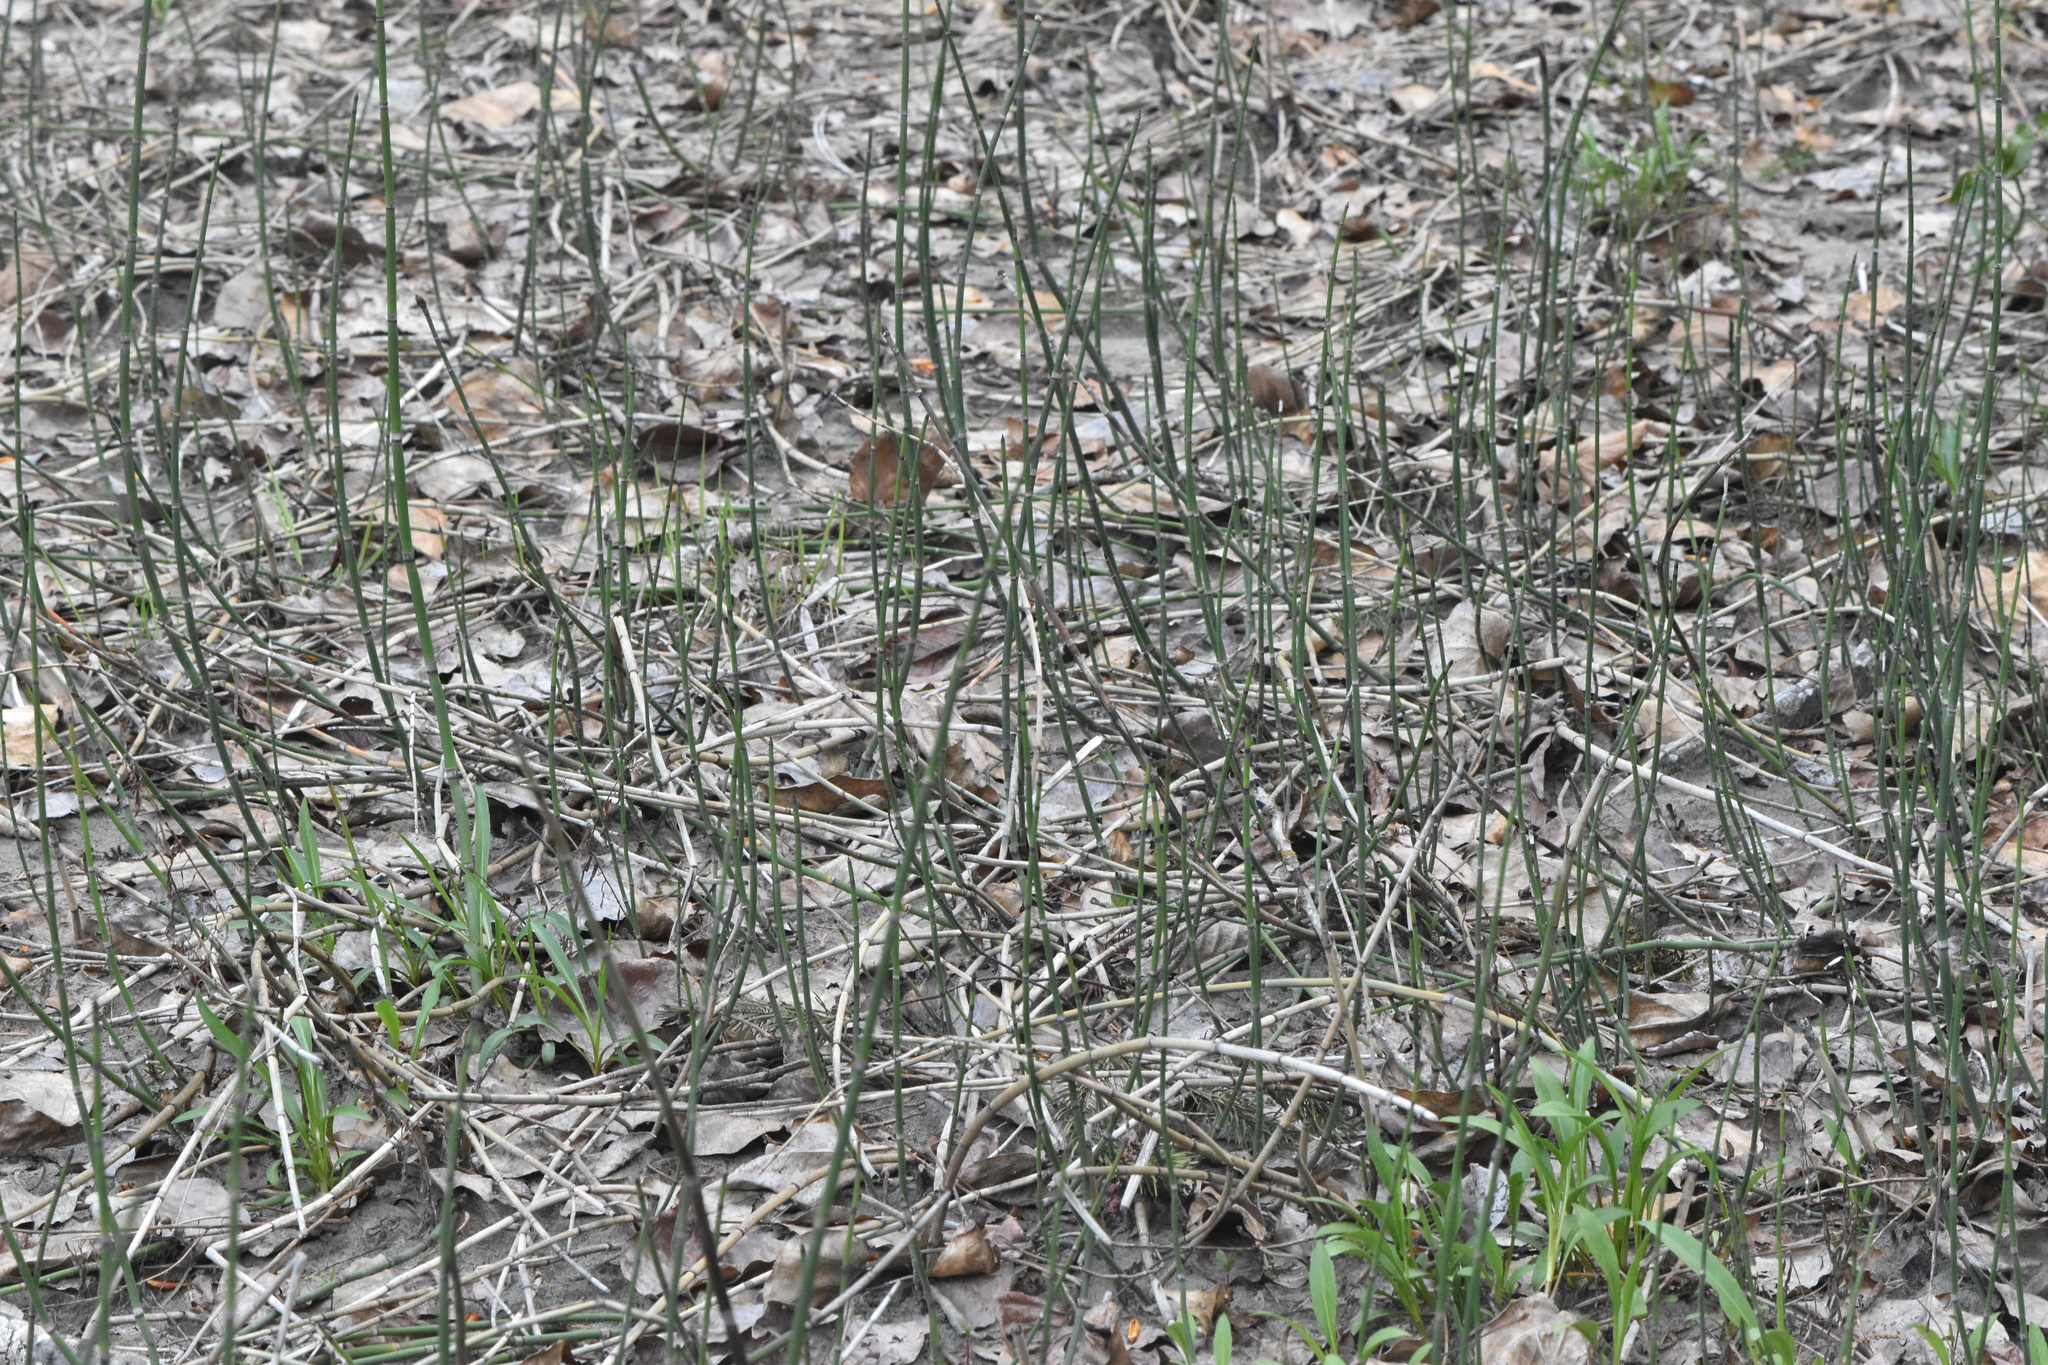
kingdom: Plantae
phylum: Tracheophyta
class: Polypodiopsida
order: Equisetales
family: Equisetaceae
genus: Equisetum
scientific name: Equisetum hyemale
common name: Rough horsetail
